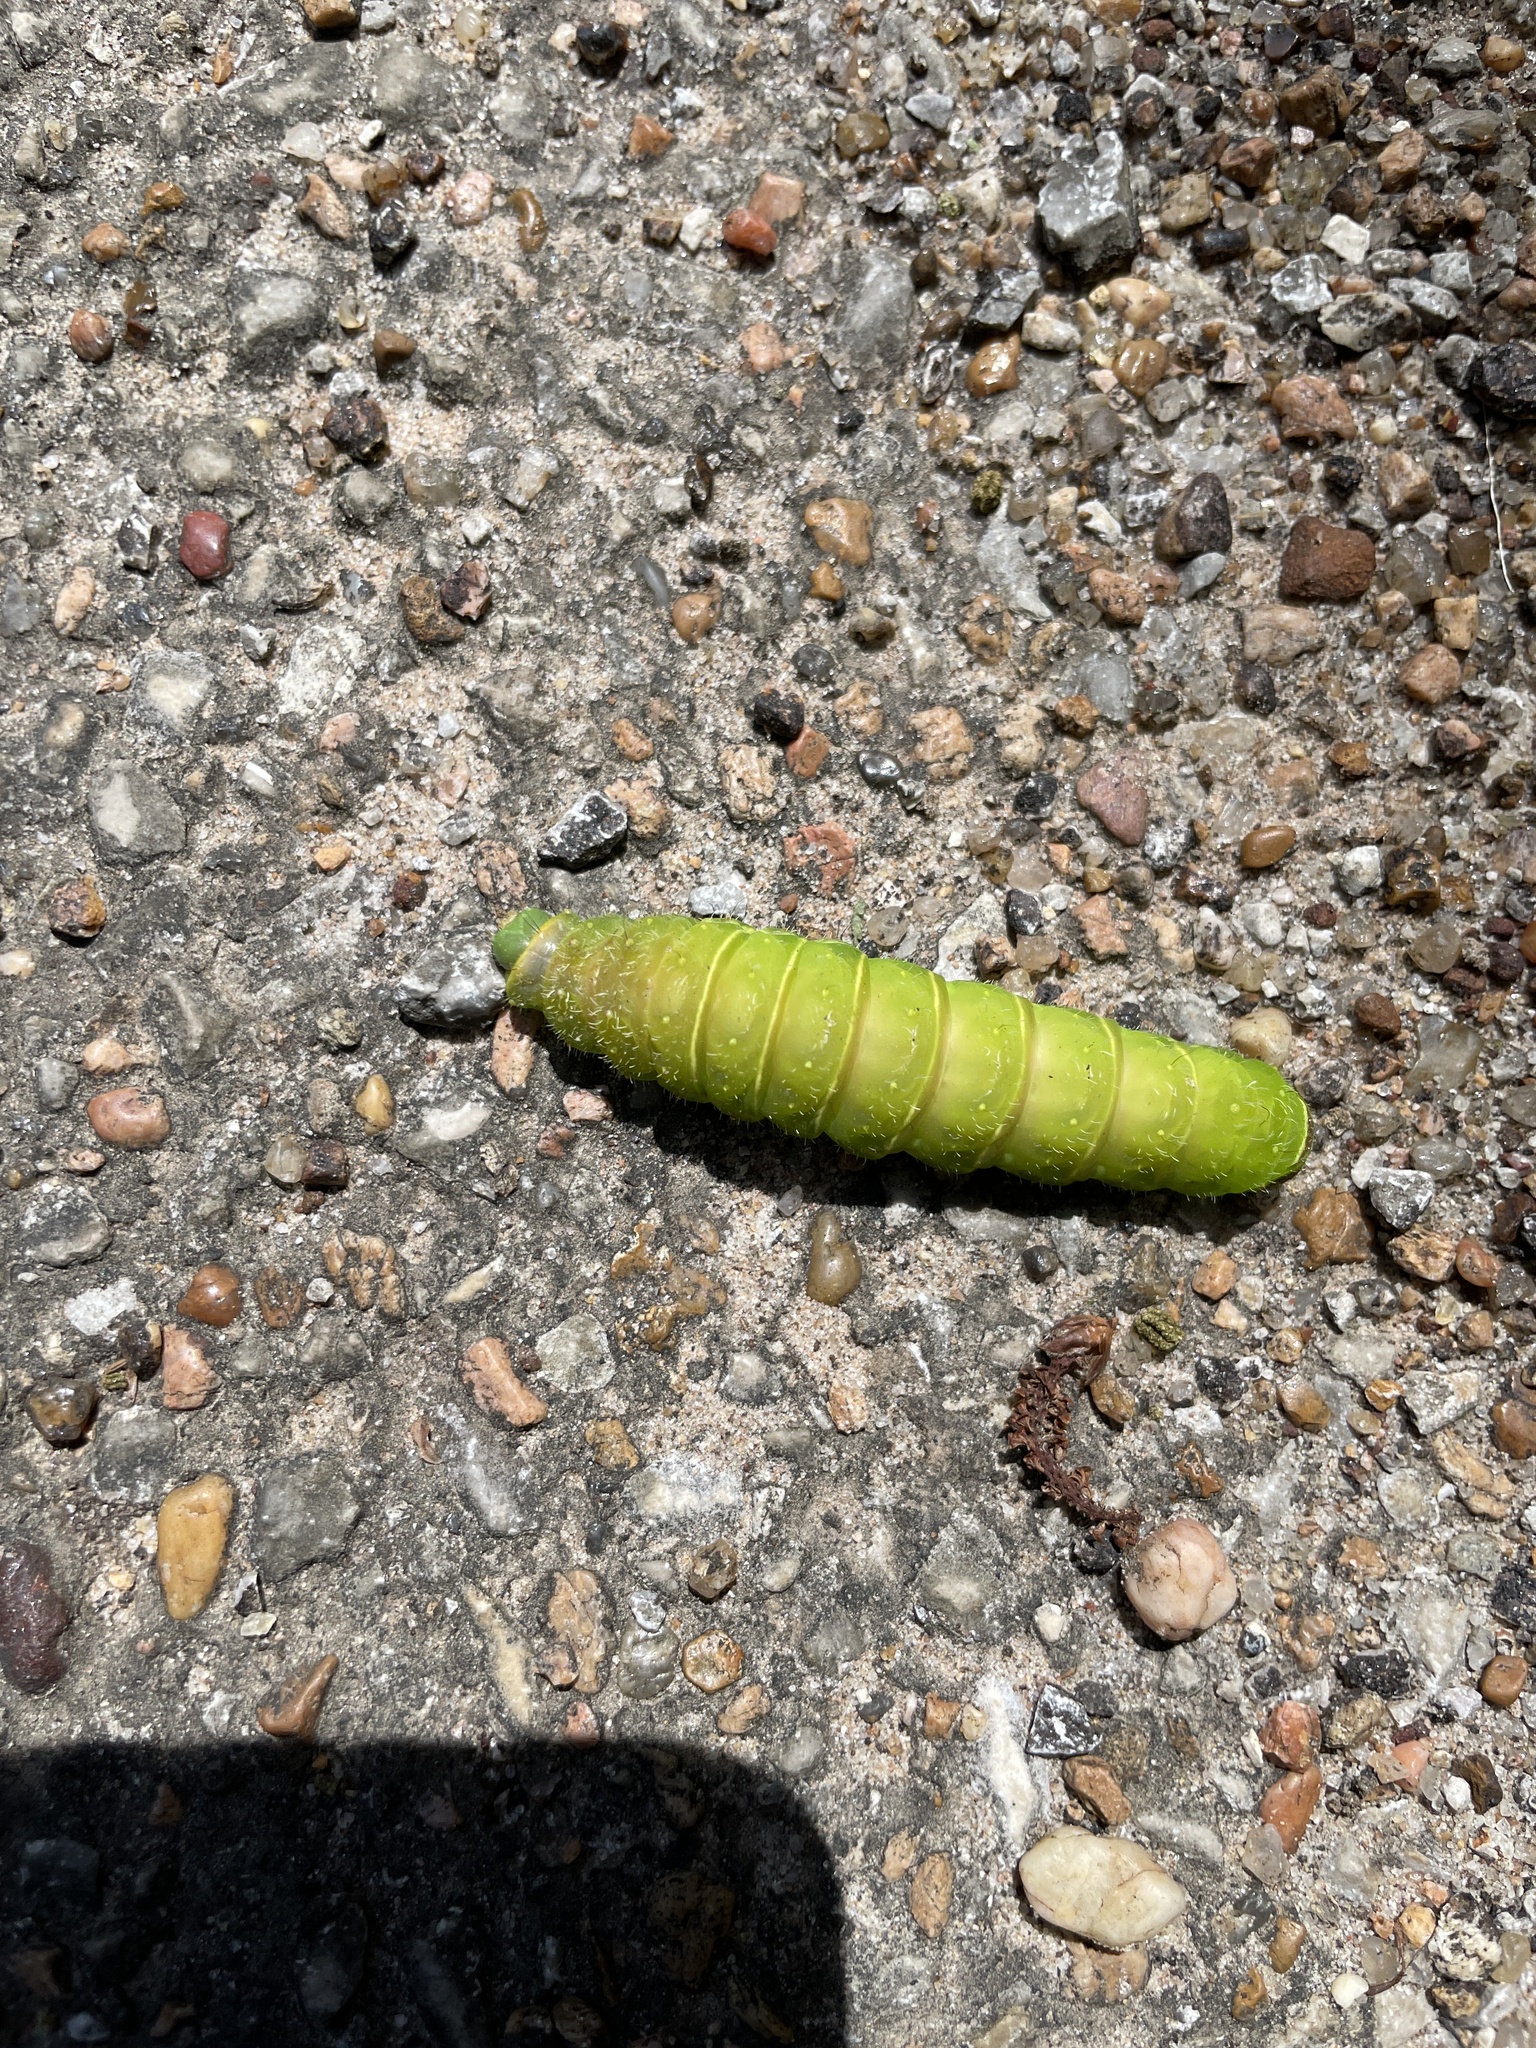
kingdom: Animalia
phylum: Arthropoda
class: Insecta
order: Lepidoptera
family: Saturniidae
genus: Actias
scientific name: Actias luna
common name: Luna moth
